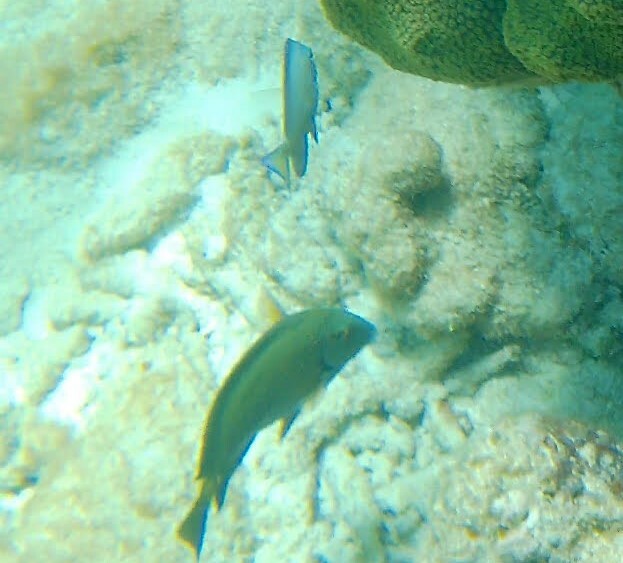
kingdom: Animalia
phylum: Chordata
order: Perciformes
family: Acanthuridae
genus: Acanthurus
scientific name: Acanthurus bahianus
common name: Ocean surgeon
